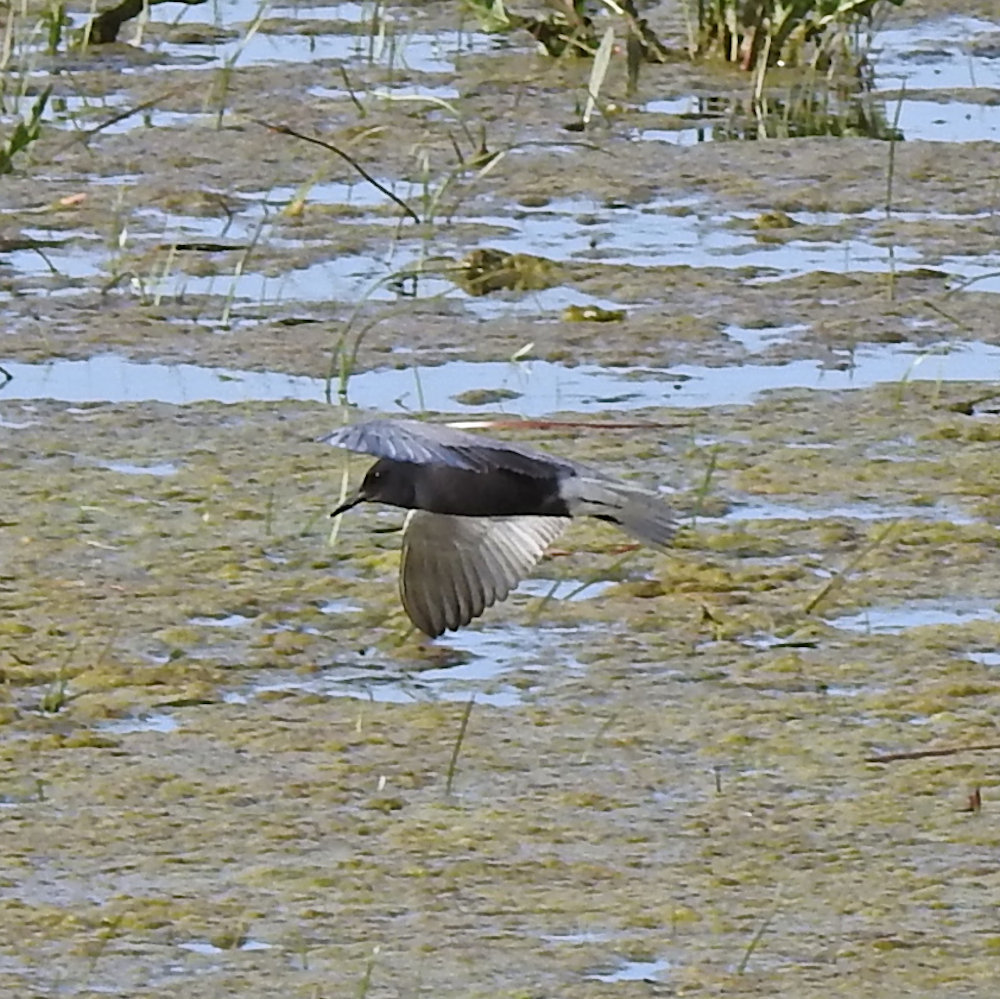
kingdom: Animalia
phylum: Chordata
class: Aves
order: Charadriiformes
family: Laridae
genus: Chlidonias
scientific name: Chlidonias niger
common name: Black tern
